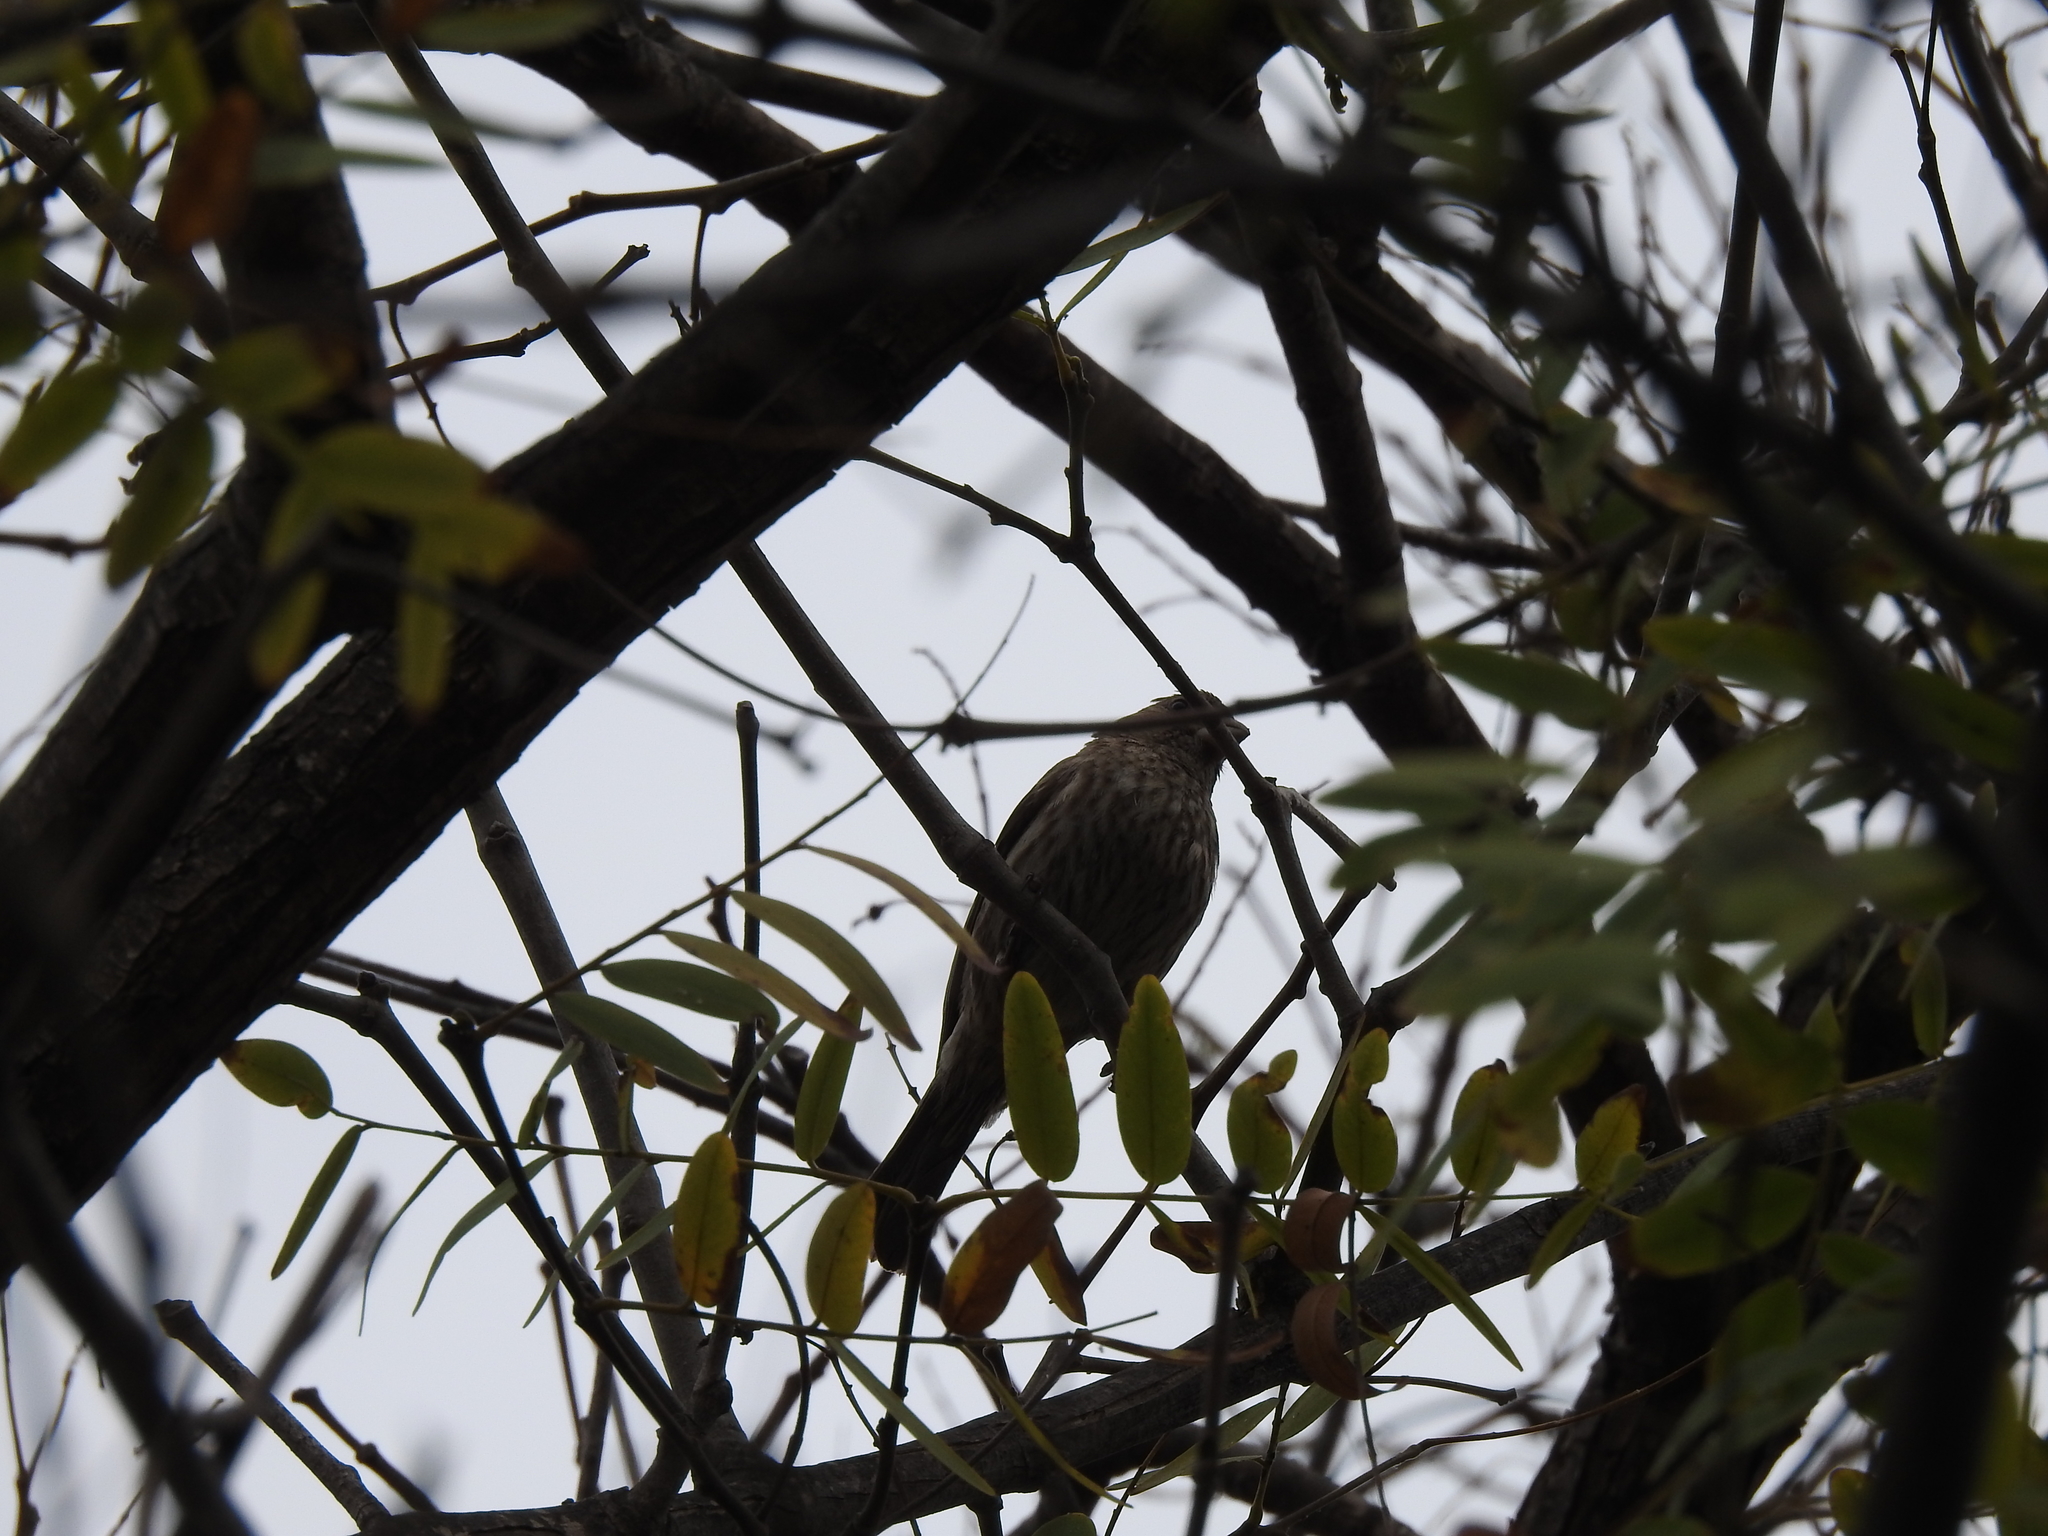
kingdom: Animalia
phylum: Chordata
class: Aves
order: Passeriformes
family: Fringillidae
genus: Haemorhous
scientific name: Haemorhous mexicanus
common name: House finch
